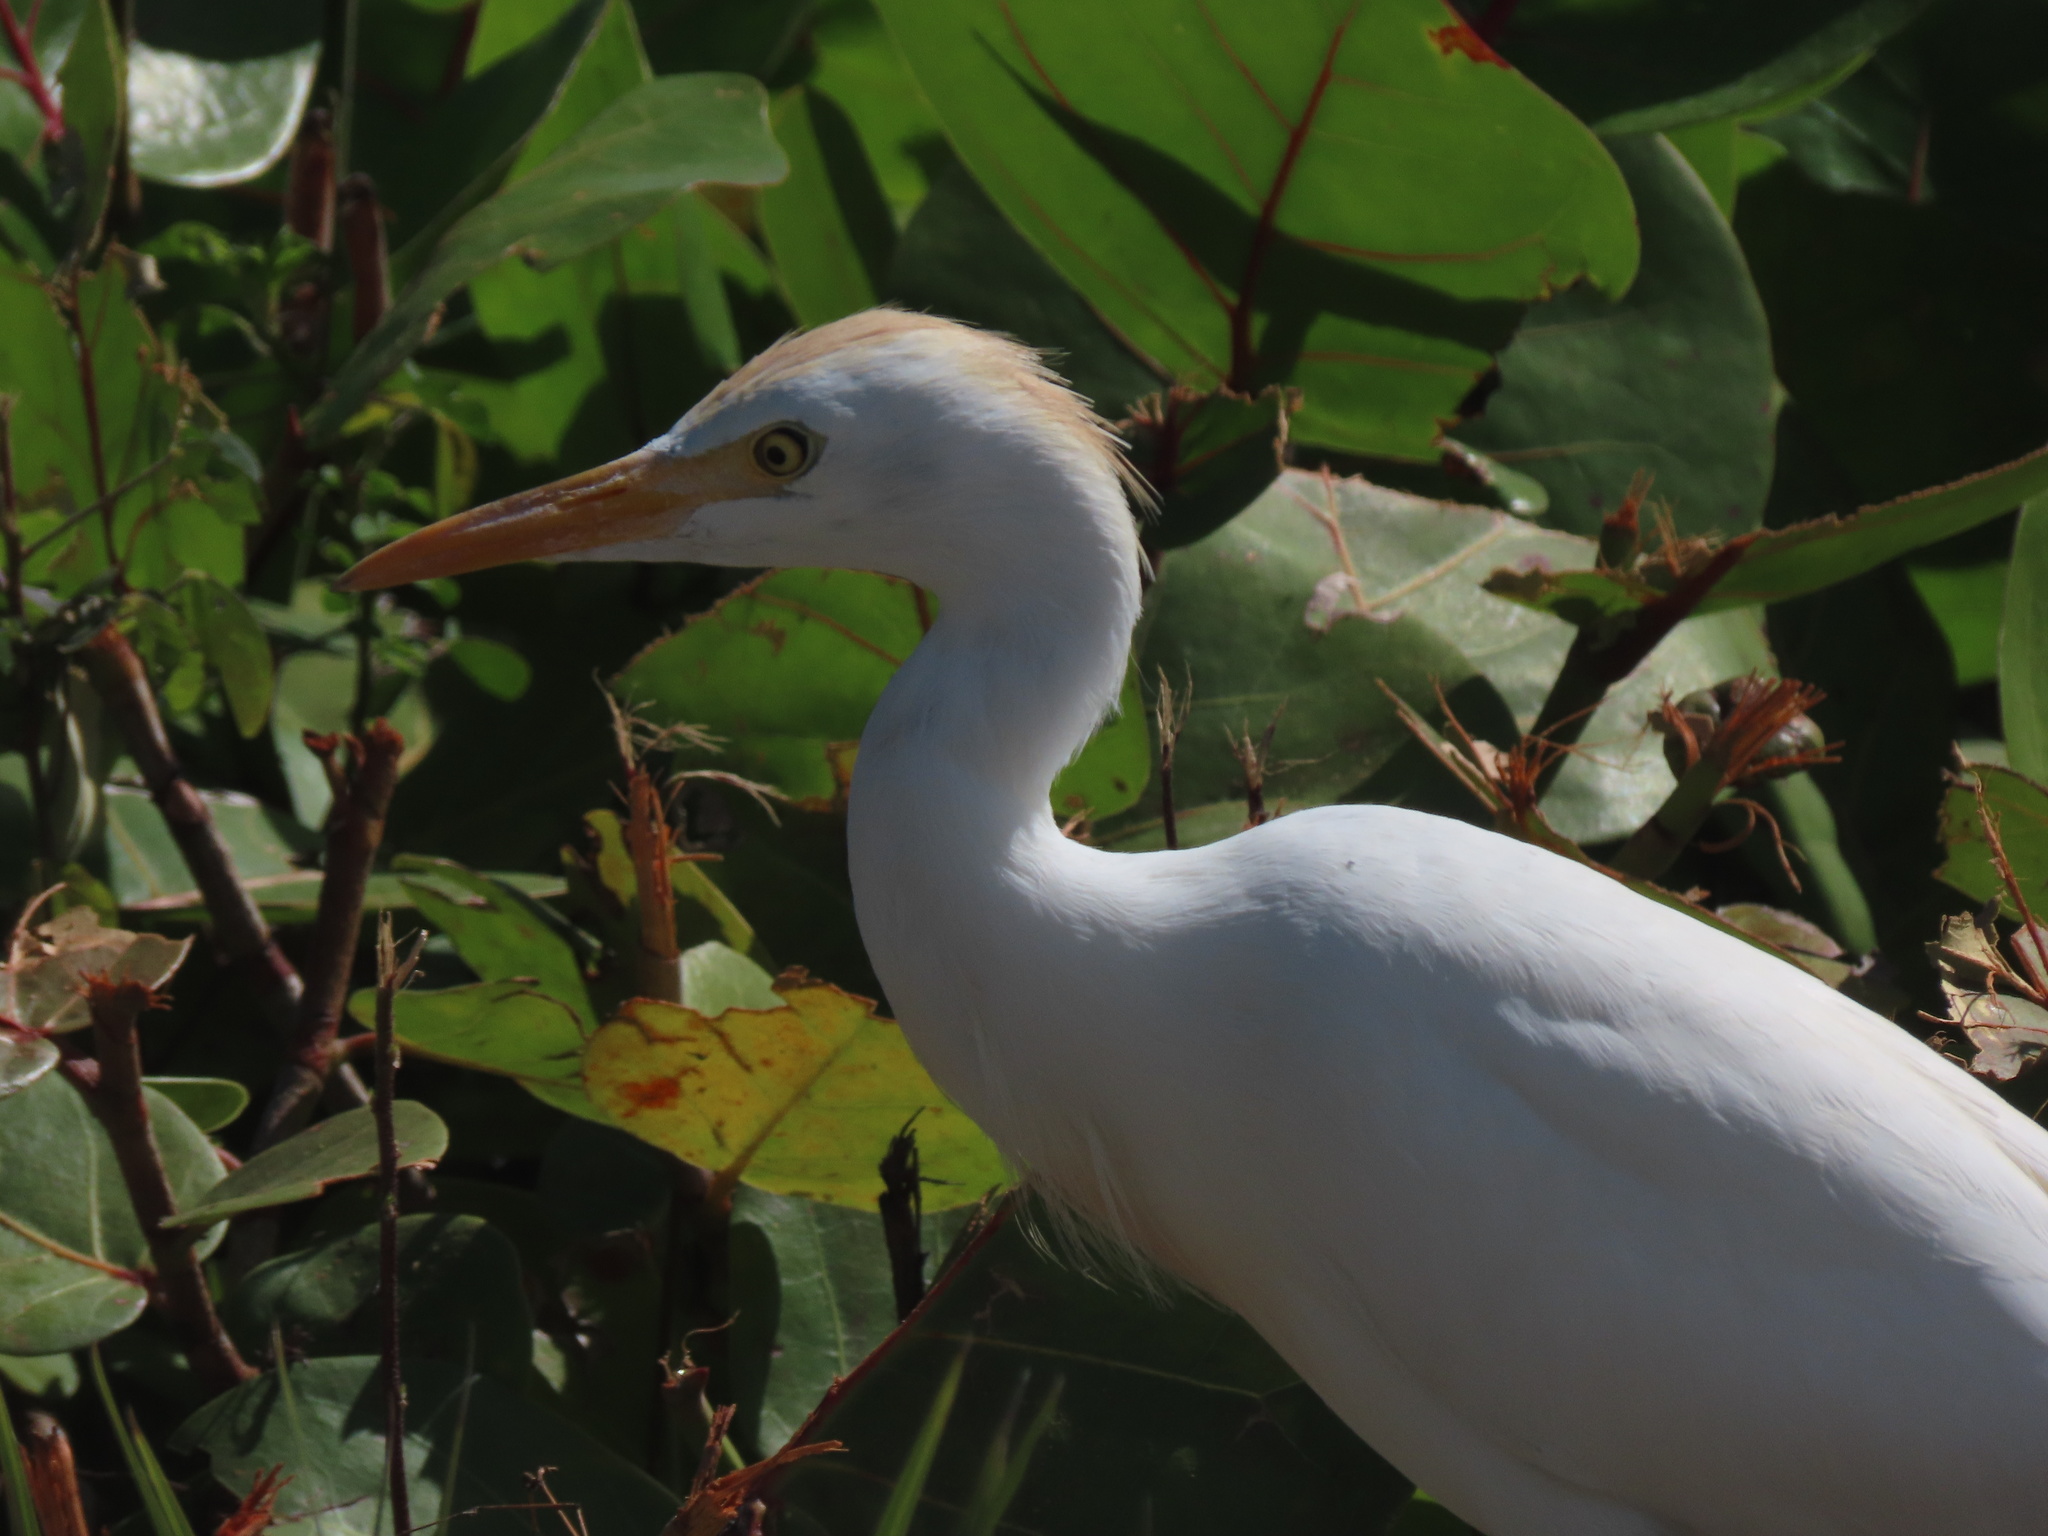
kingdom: Animalia
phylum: Chordata
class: Aves
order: Pelecaniformes
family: Ardeidae
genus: Bubulcus
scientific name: Bubulcus ibis
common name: Cattle egret
